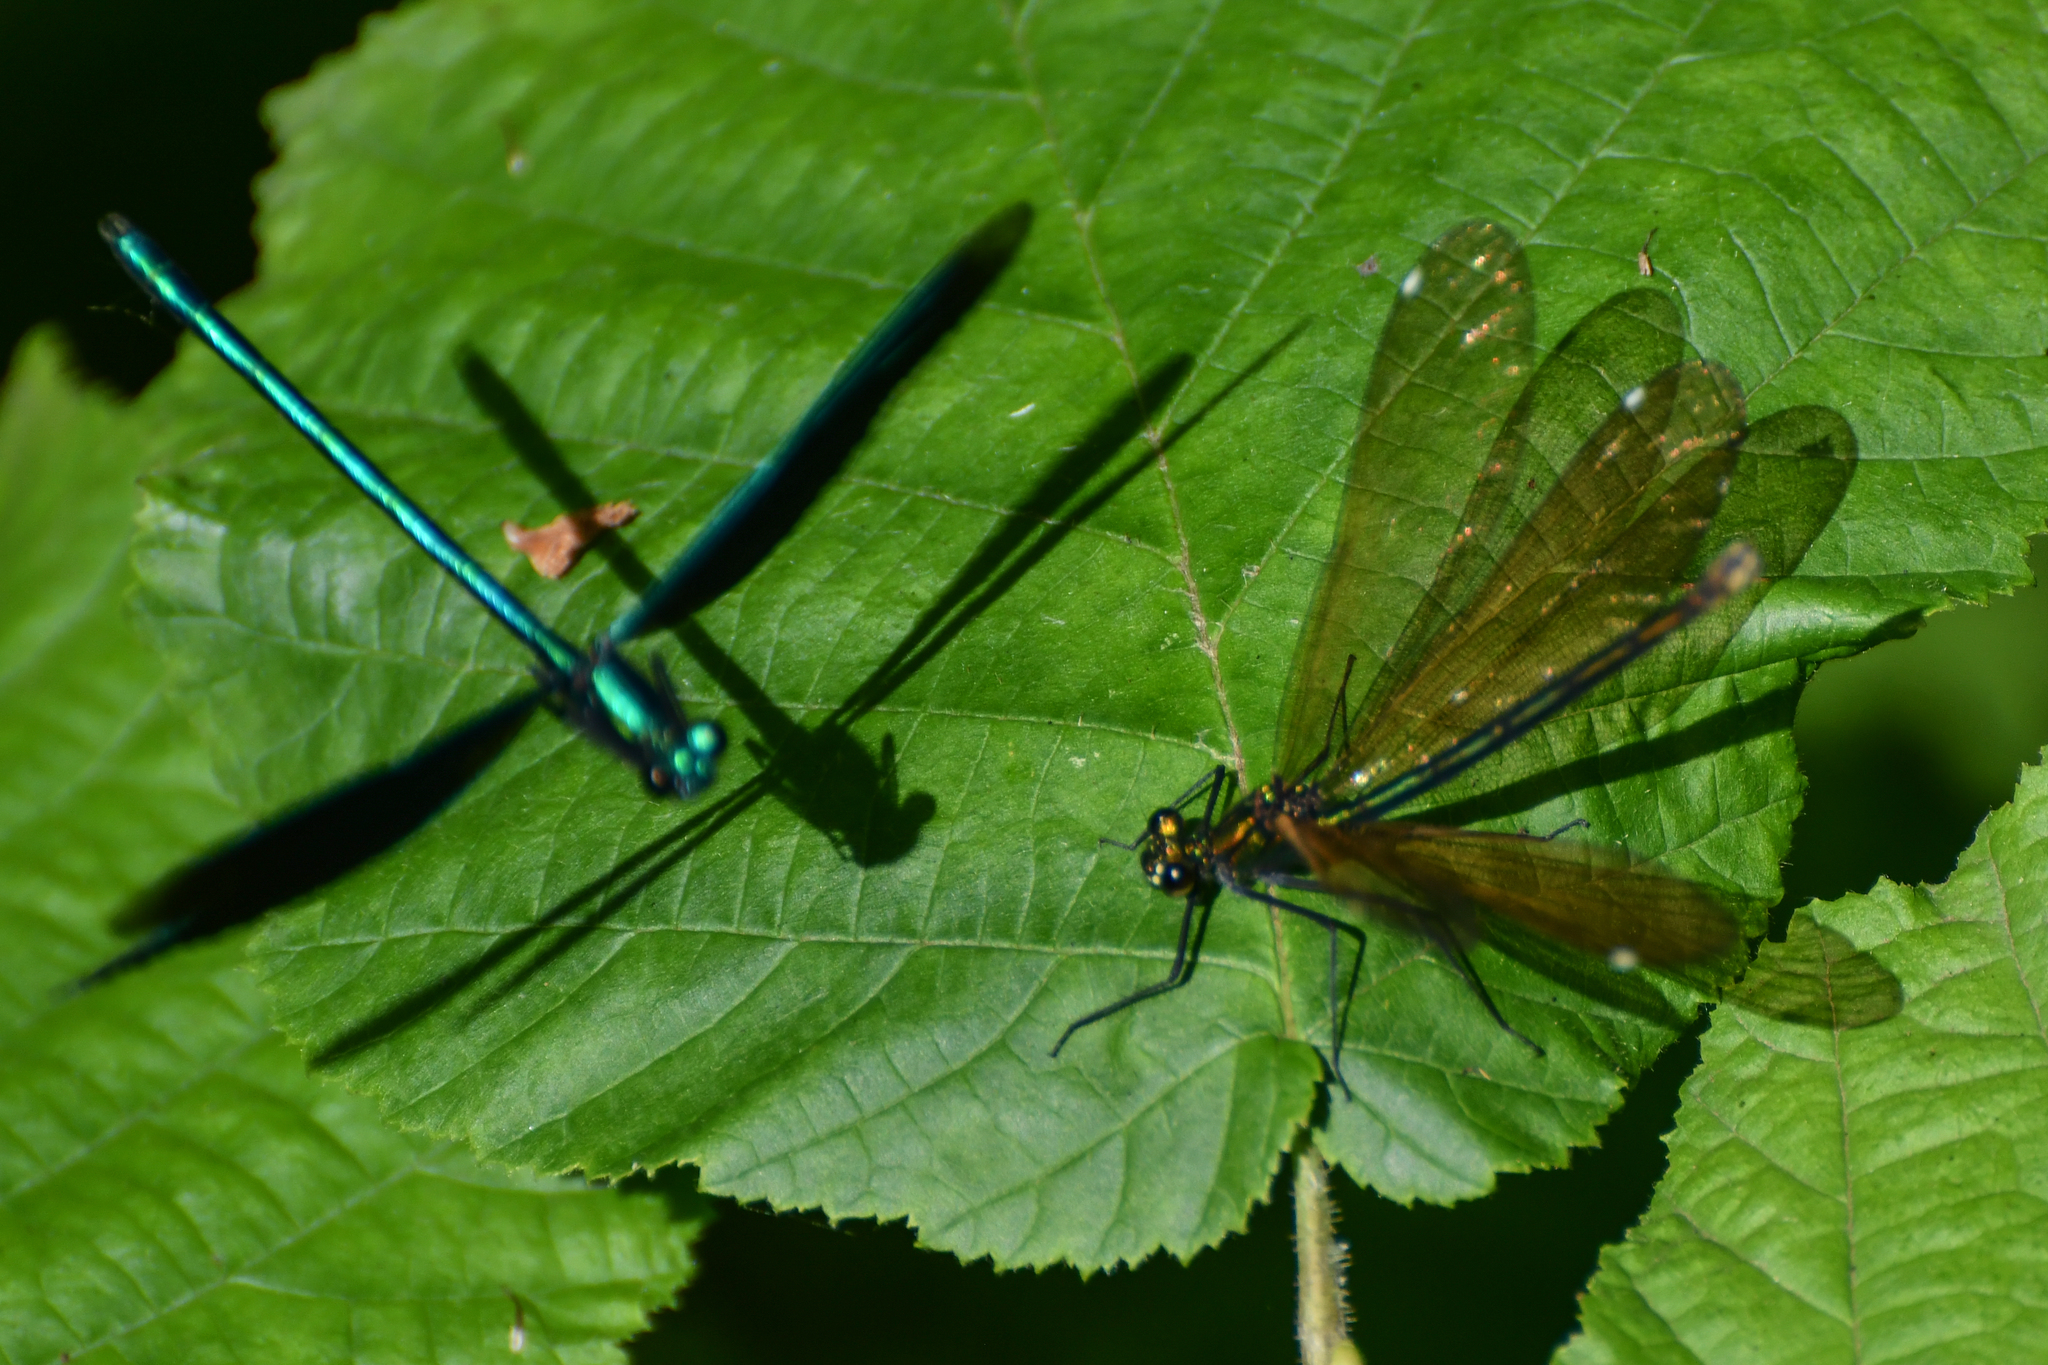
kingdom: Animalia
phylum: Arthropoda
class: Insecta
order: Odonata
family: Calopterygidae
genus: Calopteryx
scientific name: Calopteryx virgo
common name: Beautiful demoiselle
